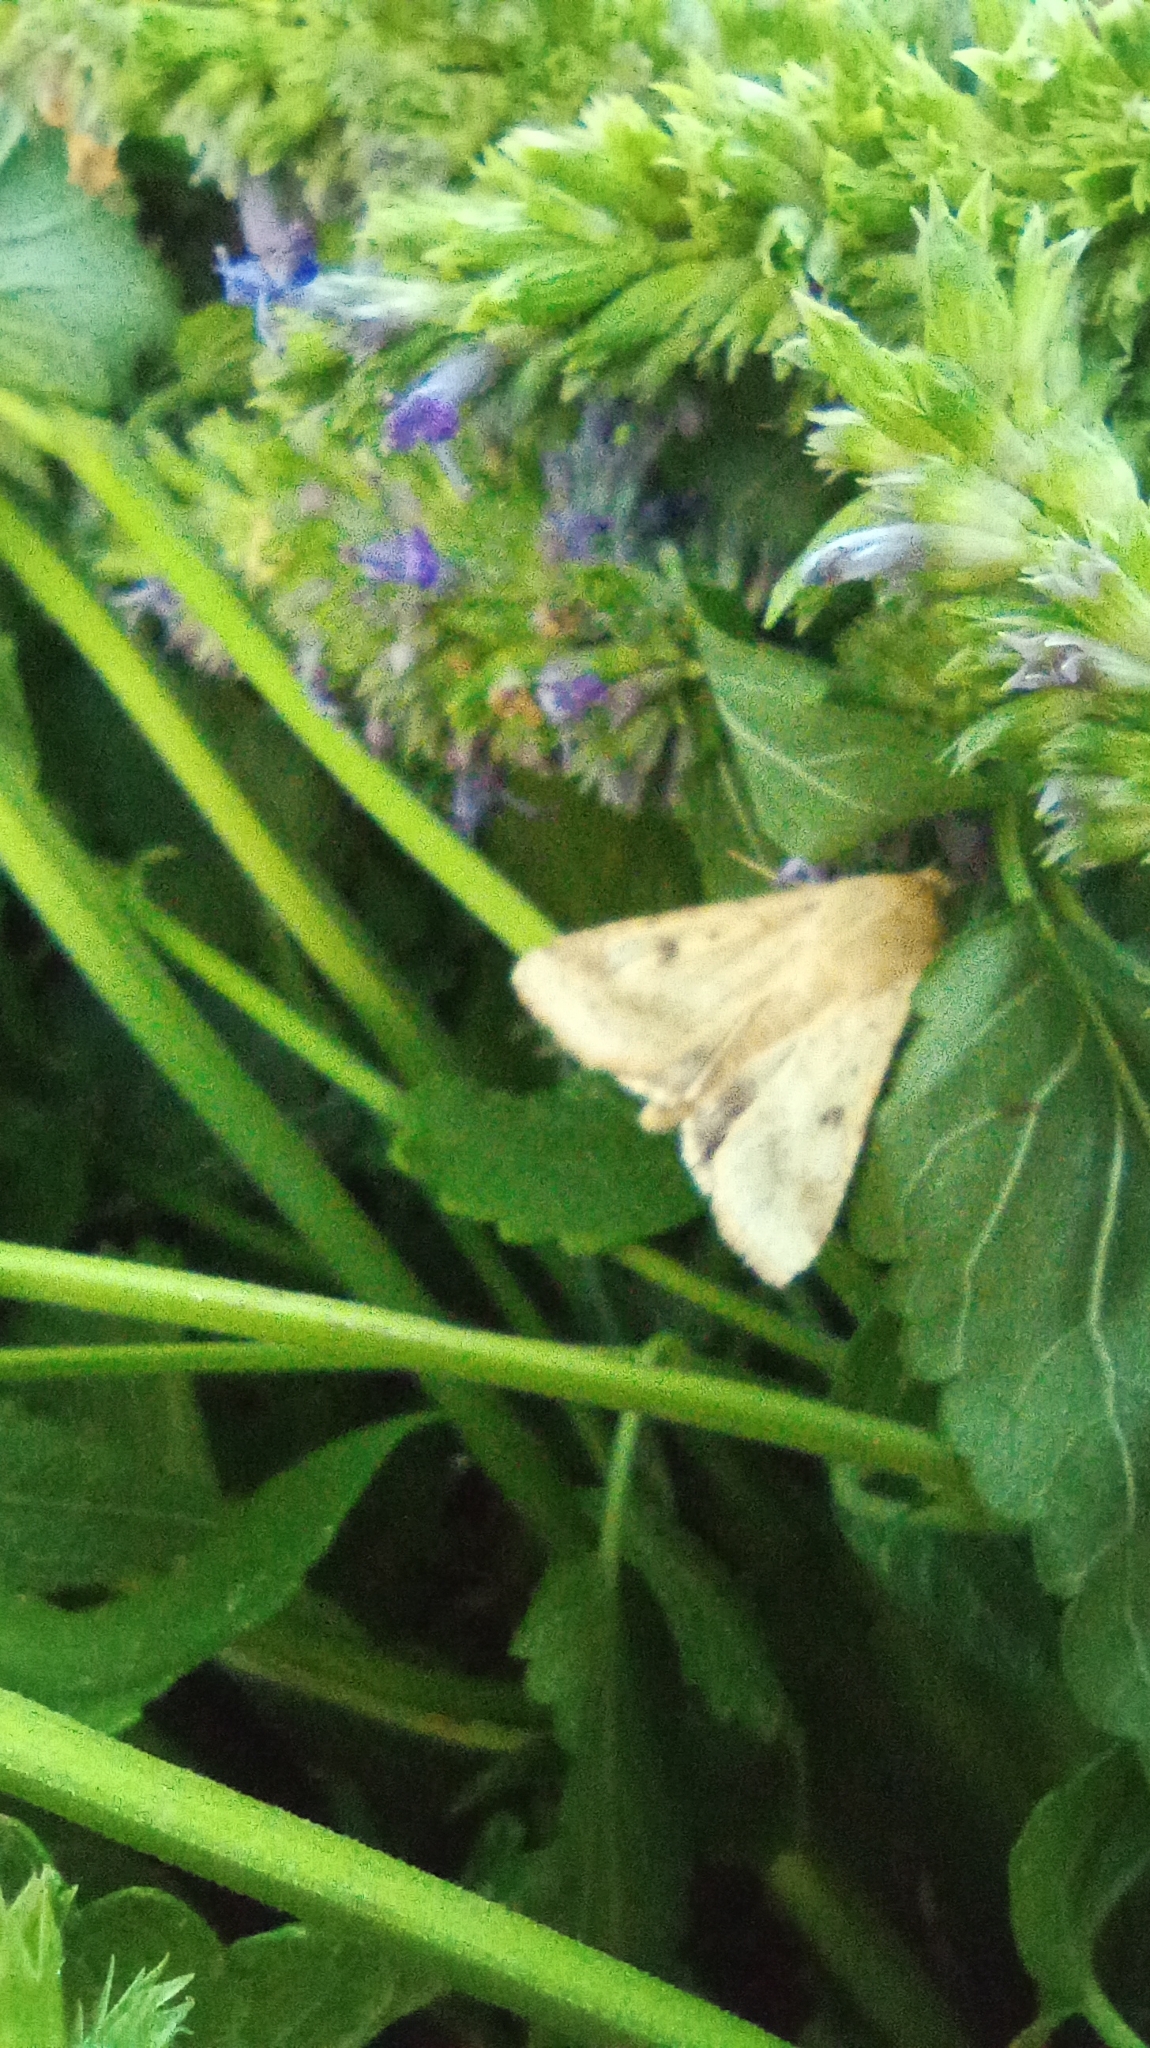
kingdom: Animalia
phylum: Arthropoda
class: Insecta
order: Lepidoptera
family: Noctuidae
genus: Helicoverpa
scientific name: Helicoverpa armigera
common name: Cotton bollworm
